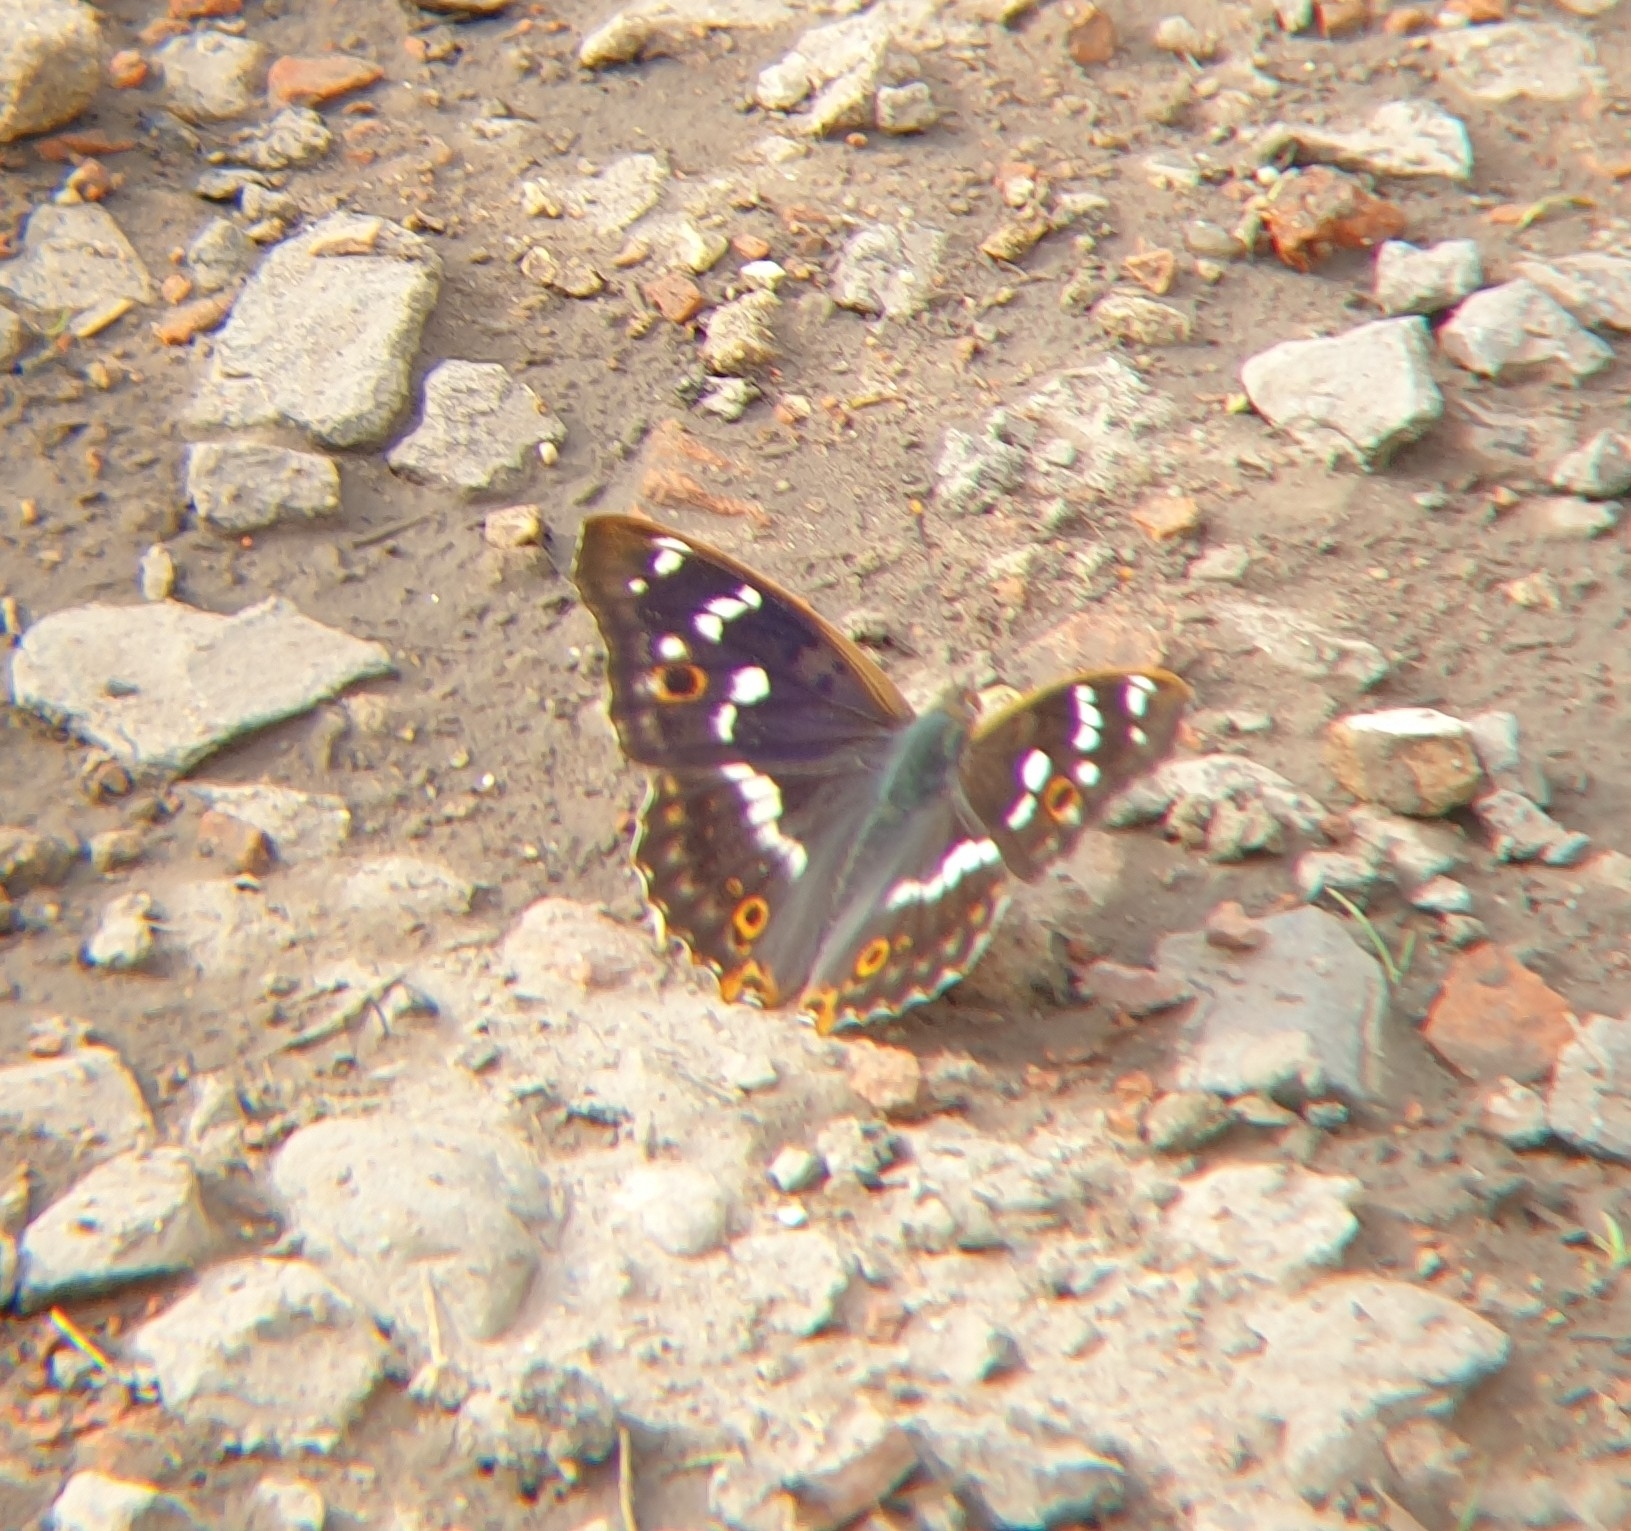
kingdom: Animalia
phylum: Arthropoda
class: Insecta
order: Lepidoptera
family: Nymphalidae
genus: Apatura
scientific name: Apatura ilia
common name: Lesser purple emperor
